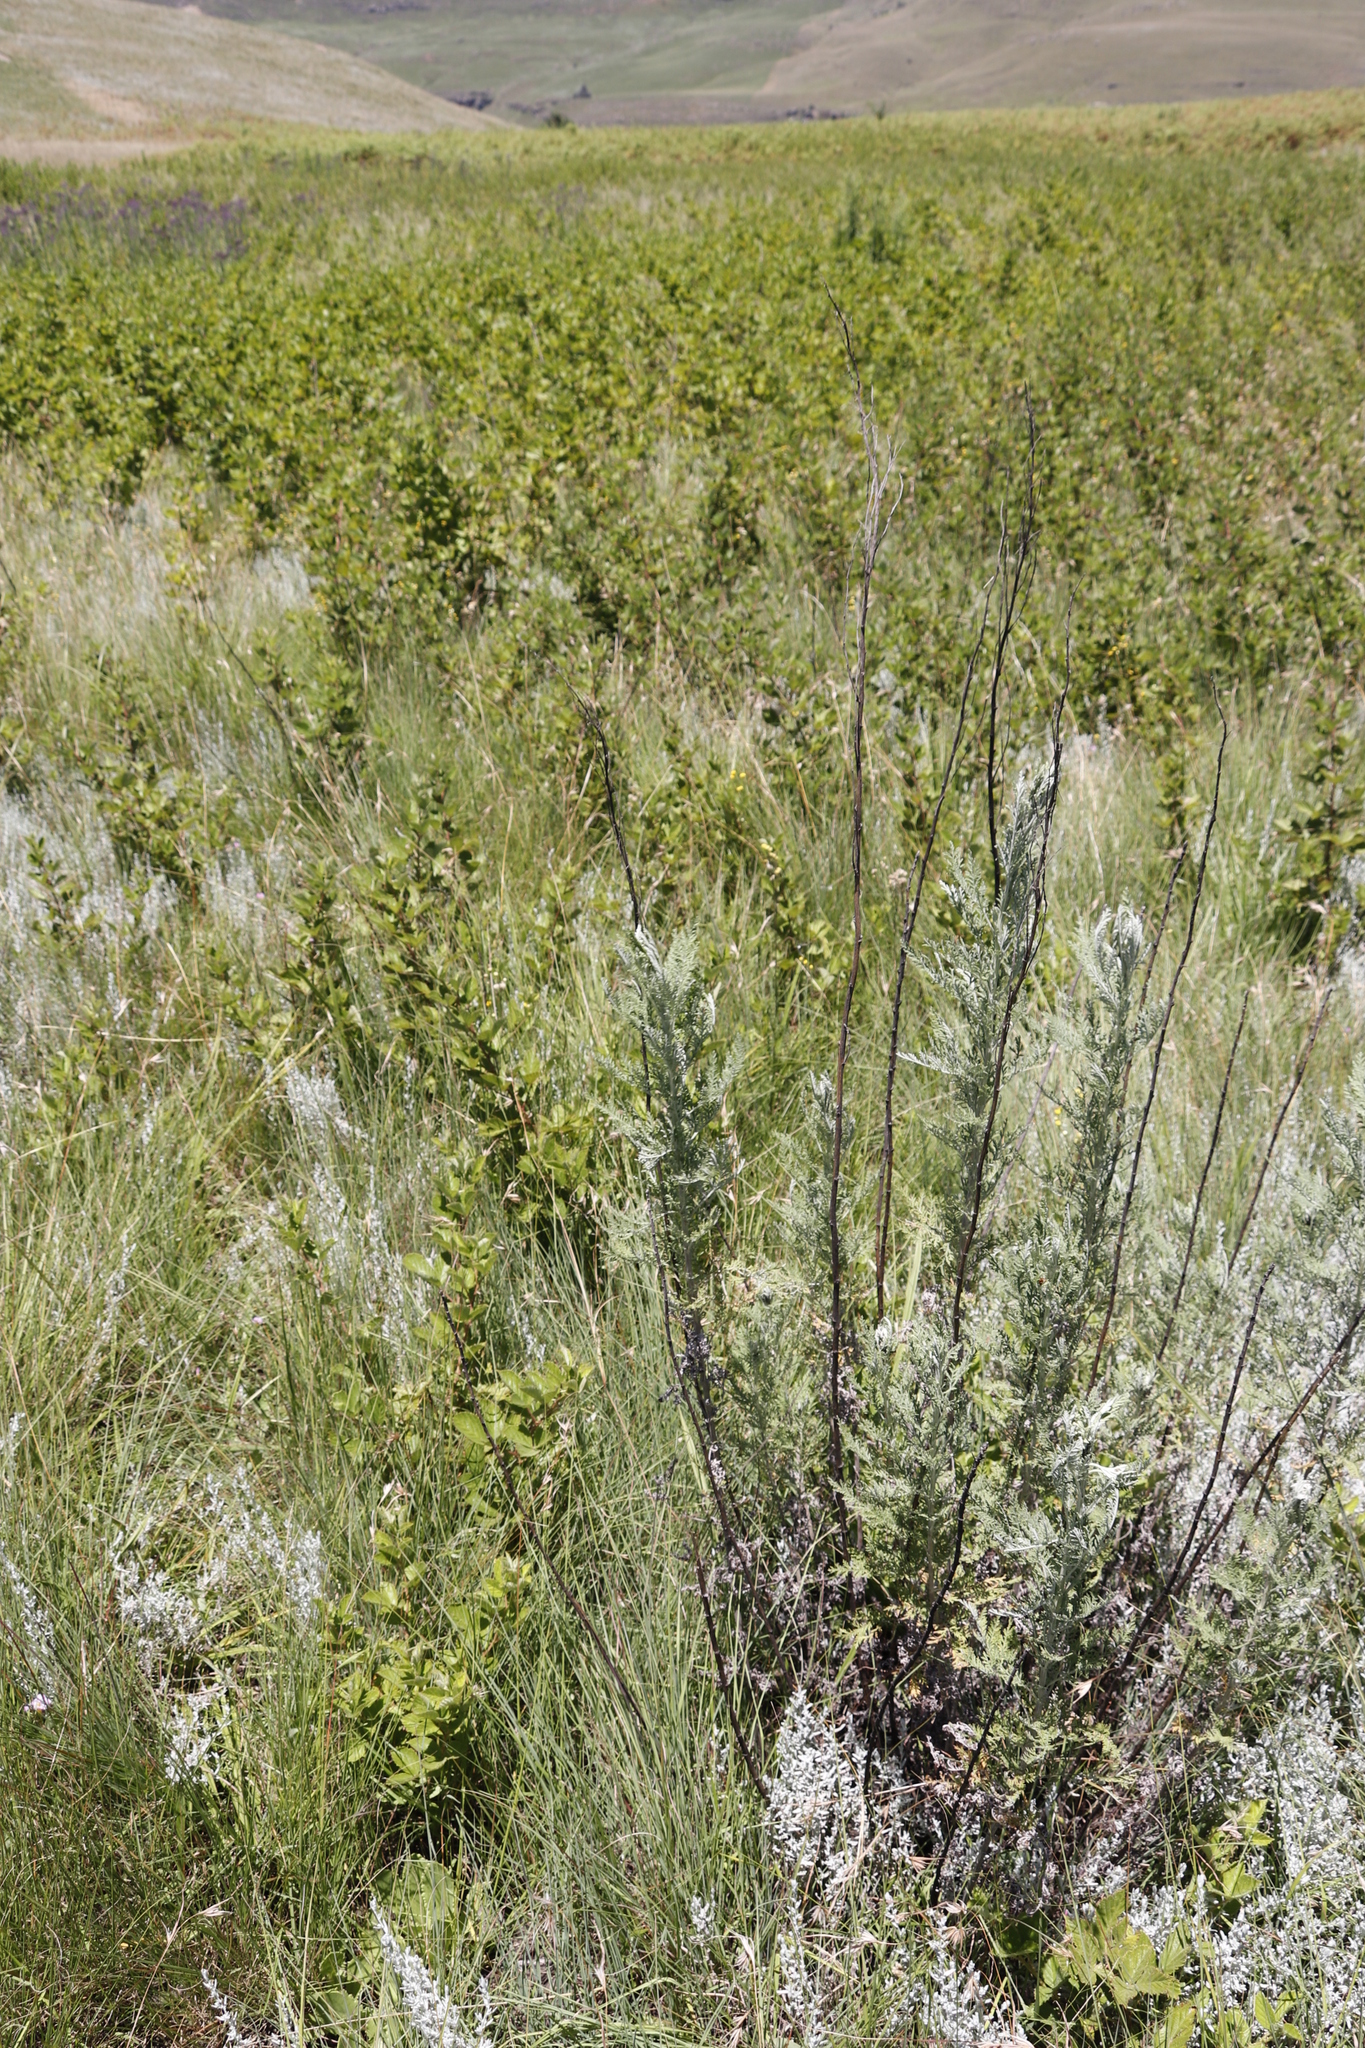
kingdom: Plantae
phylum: Tracheophyta
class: Magnoliopsida
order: Asterales
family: Asteraceae
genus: Artemisia
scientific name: Artemisia afra
